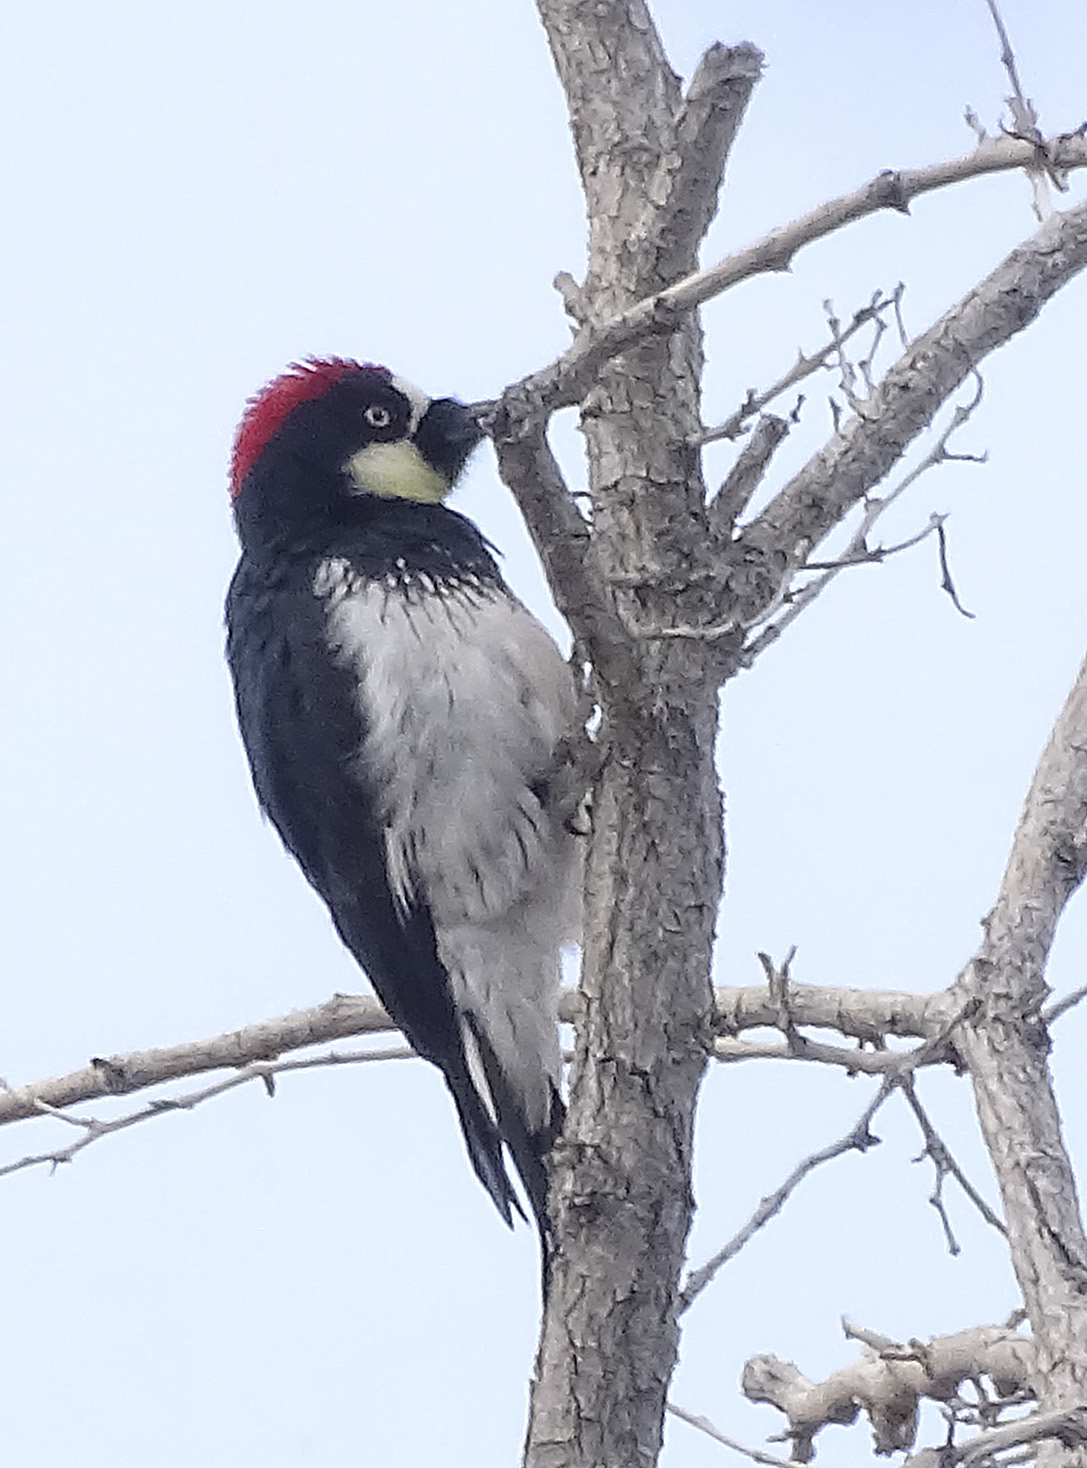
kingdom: Animalia
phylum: Chordata
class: Aves
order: Piciformes
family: Picidae
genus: Melanerpes
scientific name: Melanerpes formicivorus
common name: Acorn woodpecker
